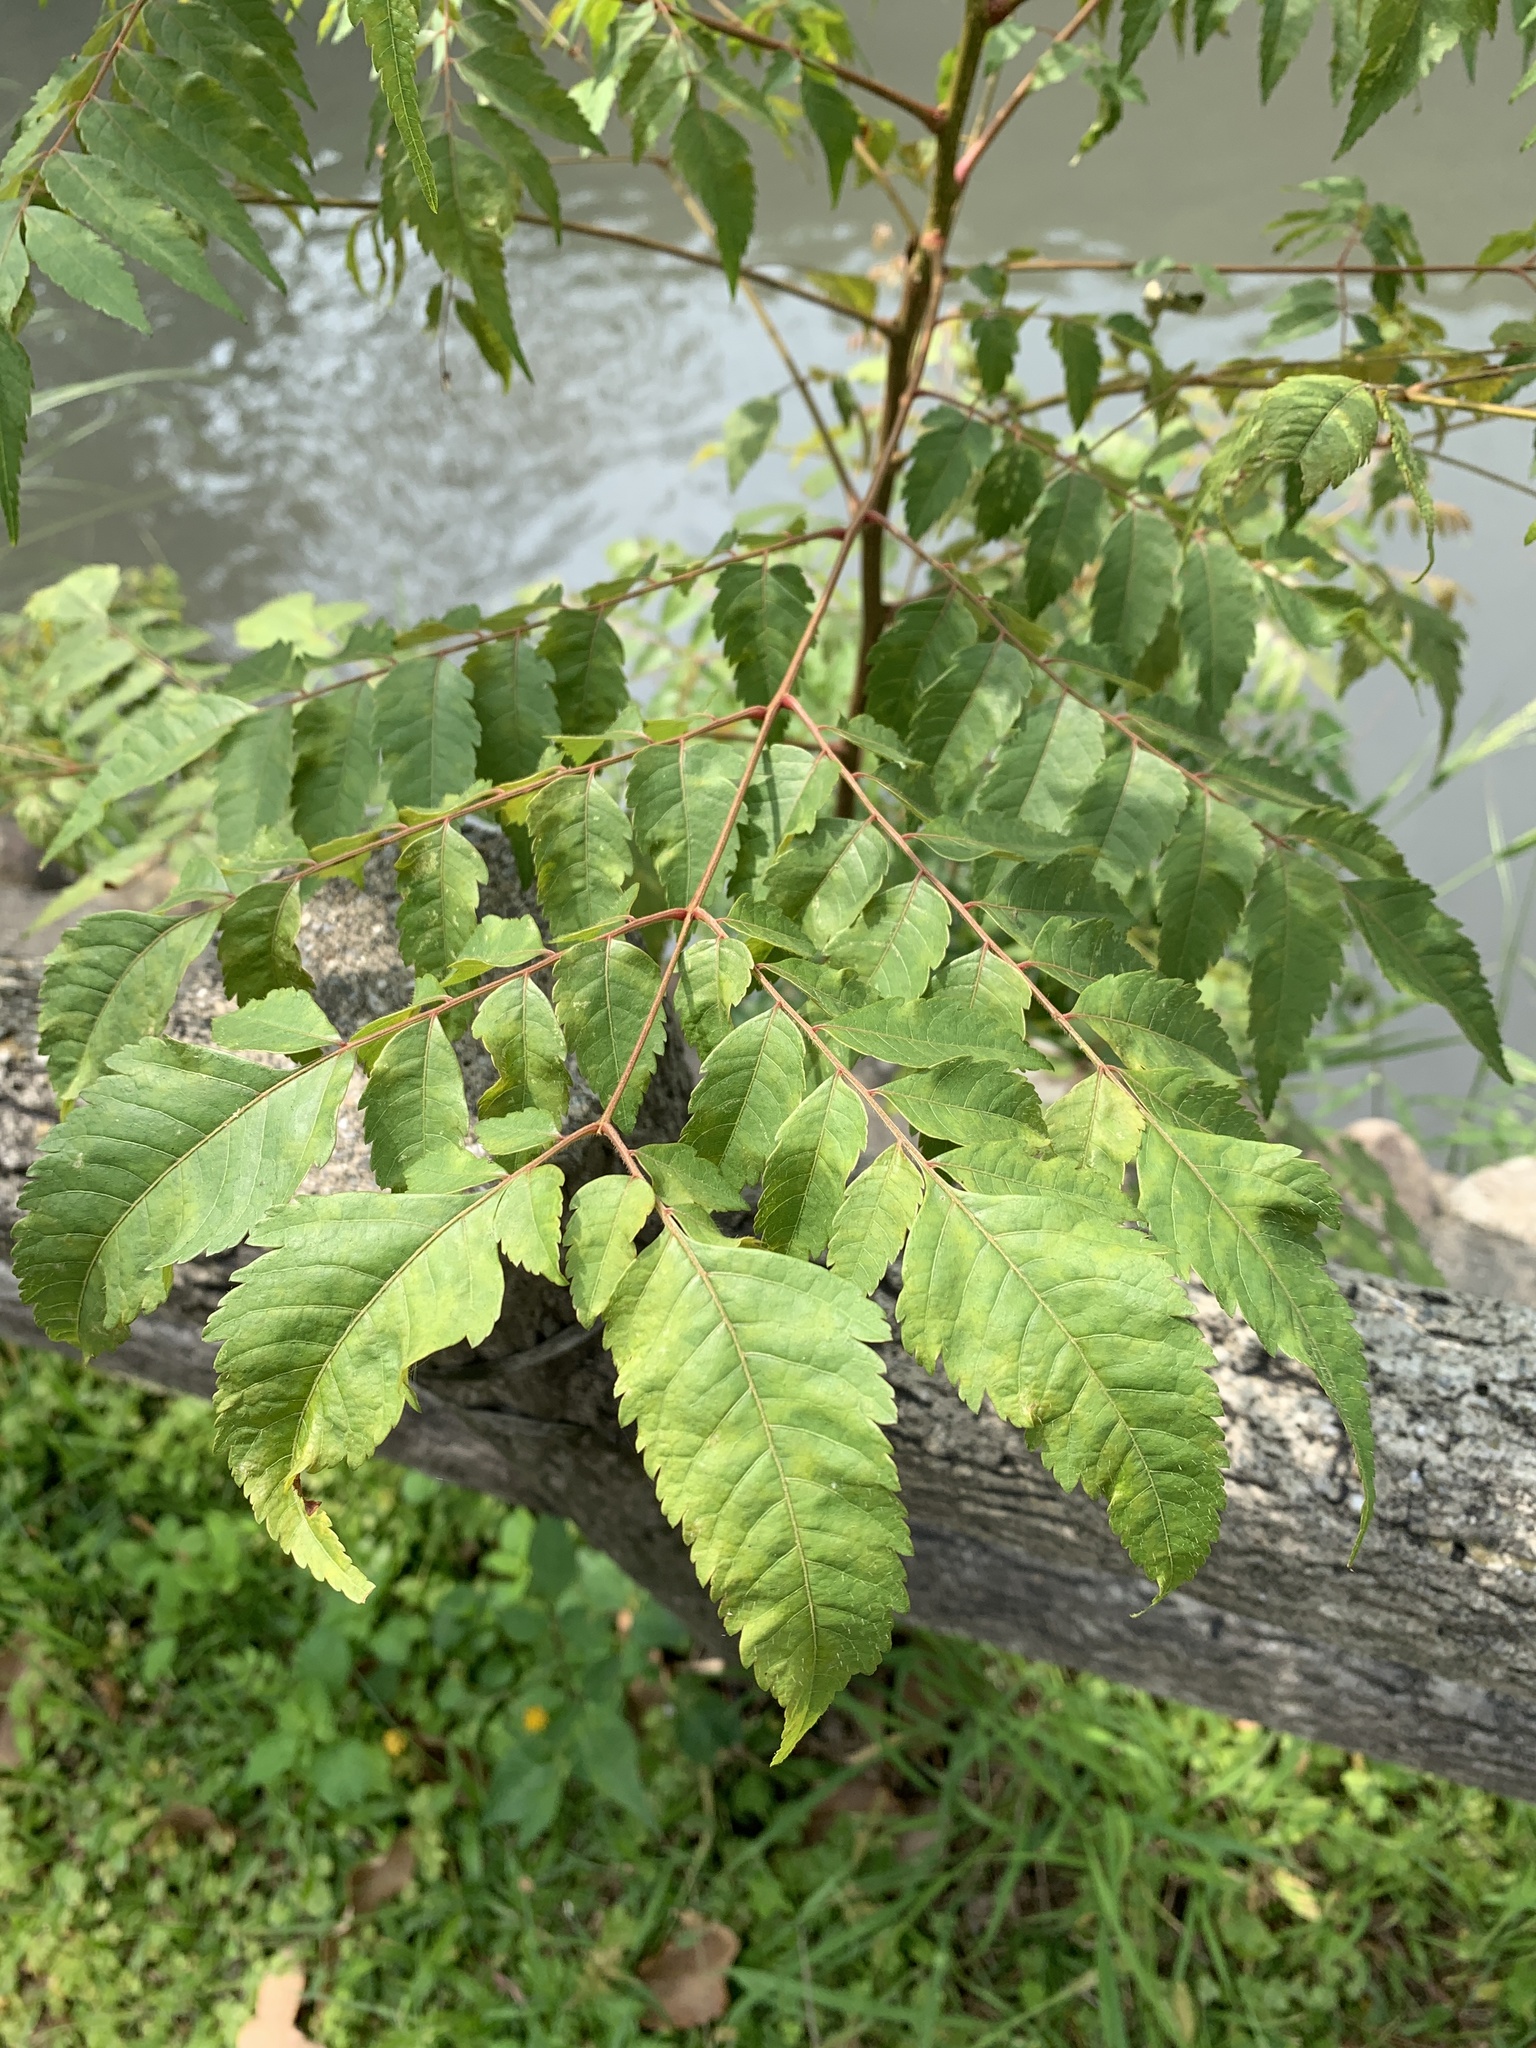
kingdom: Plantae
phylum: Tracheophyta
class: Magnoliopsida
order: Sapindales
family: Sapindaceae
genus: Koelreuteria
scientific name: Koelreuteria elegans
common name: Chinese flame tree
